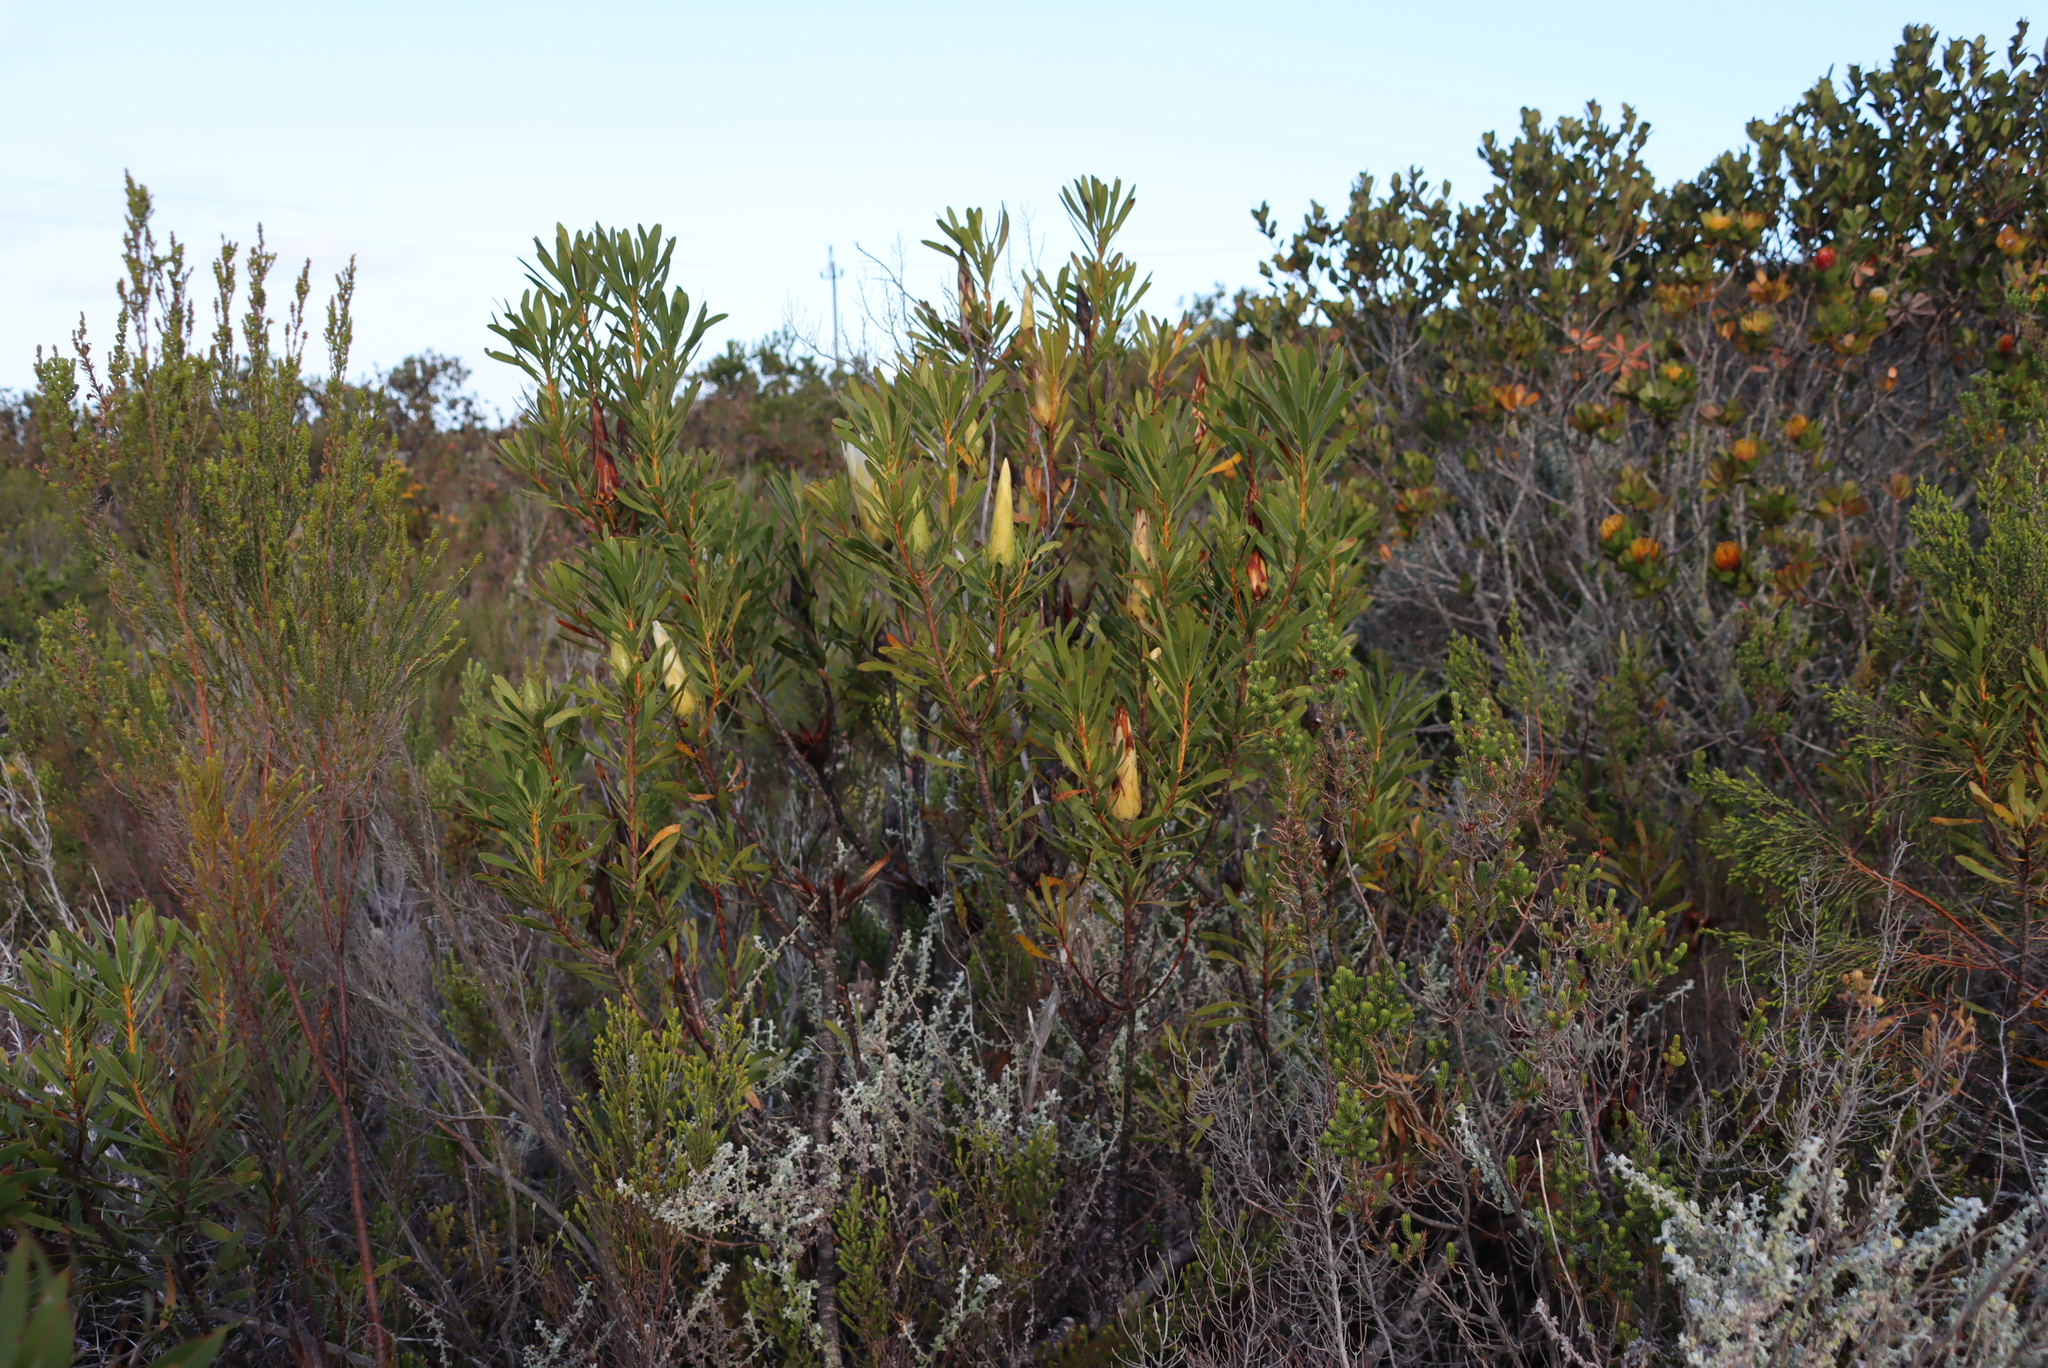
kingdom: Plantae
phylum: Tracheophyta
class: Magnoliopsida
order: Proteales
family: Proteaceae
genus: Protea
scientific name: Protea repens
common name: Sugarbush
